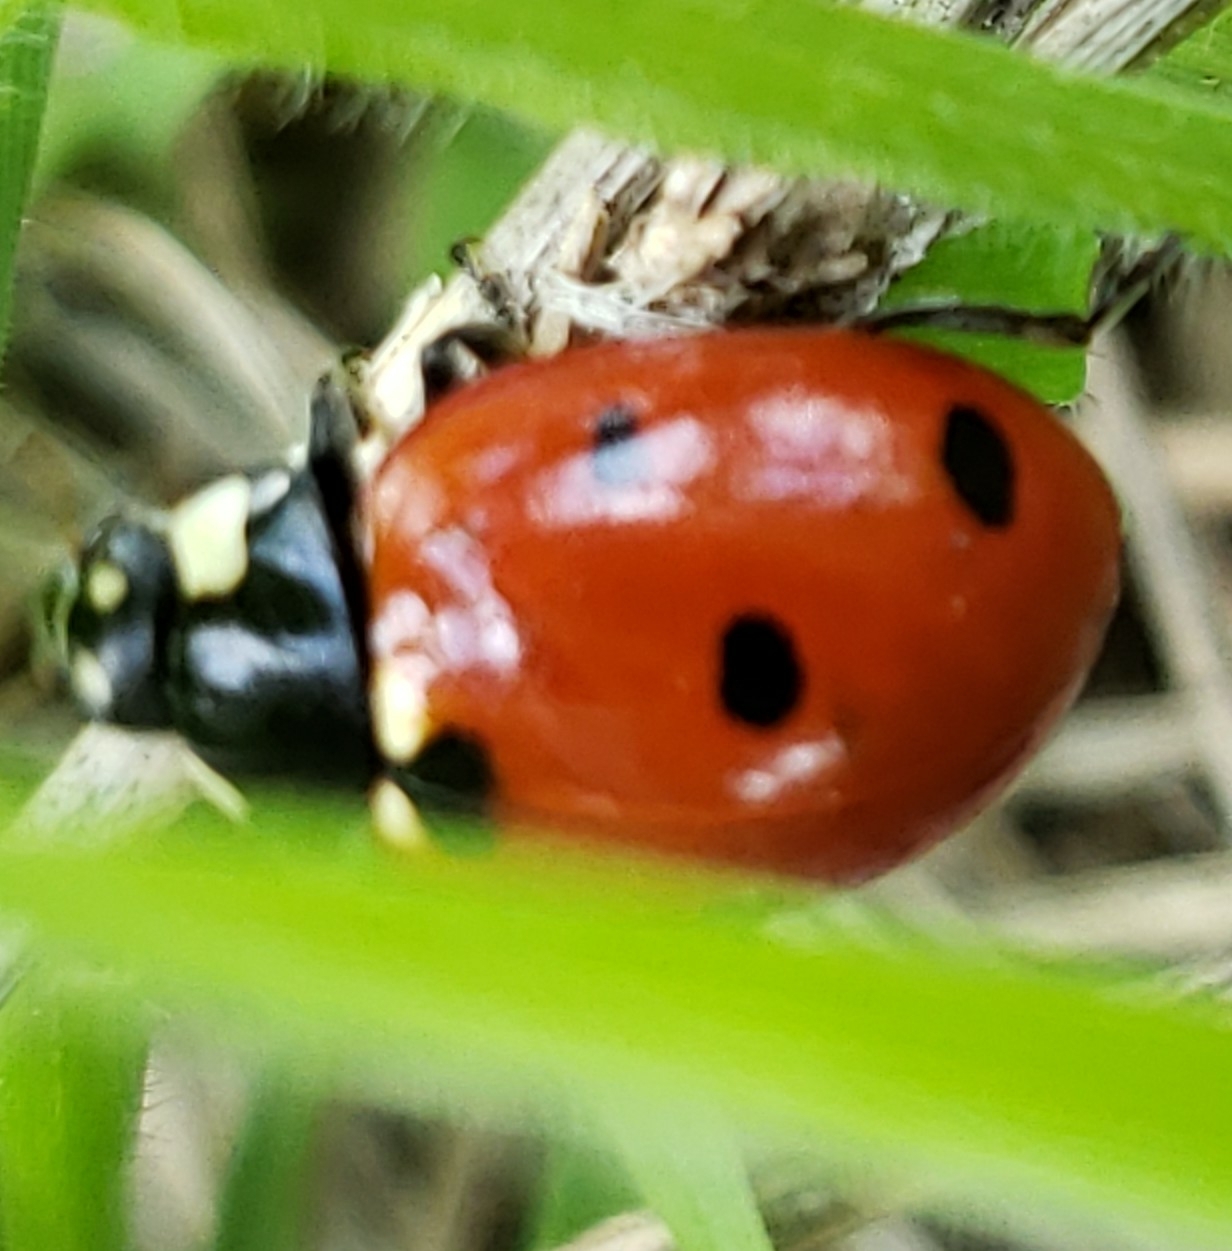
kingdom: Animalia
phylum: Arthropoda
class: Insecta
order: Coleoptera
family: Coccinellidae
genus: Coccinella
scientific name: Coccinella septempunctata
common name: Sevenspotted lady beetle
